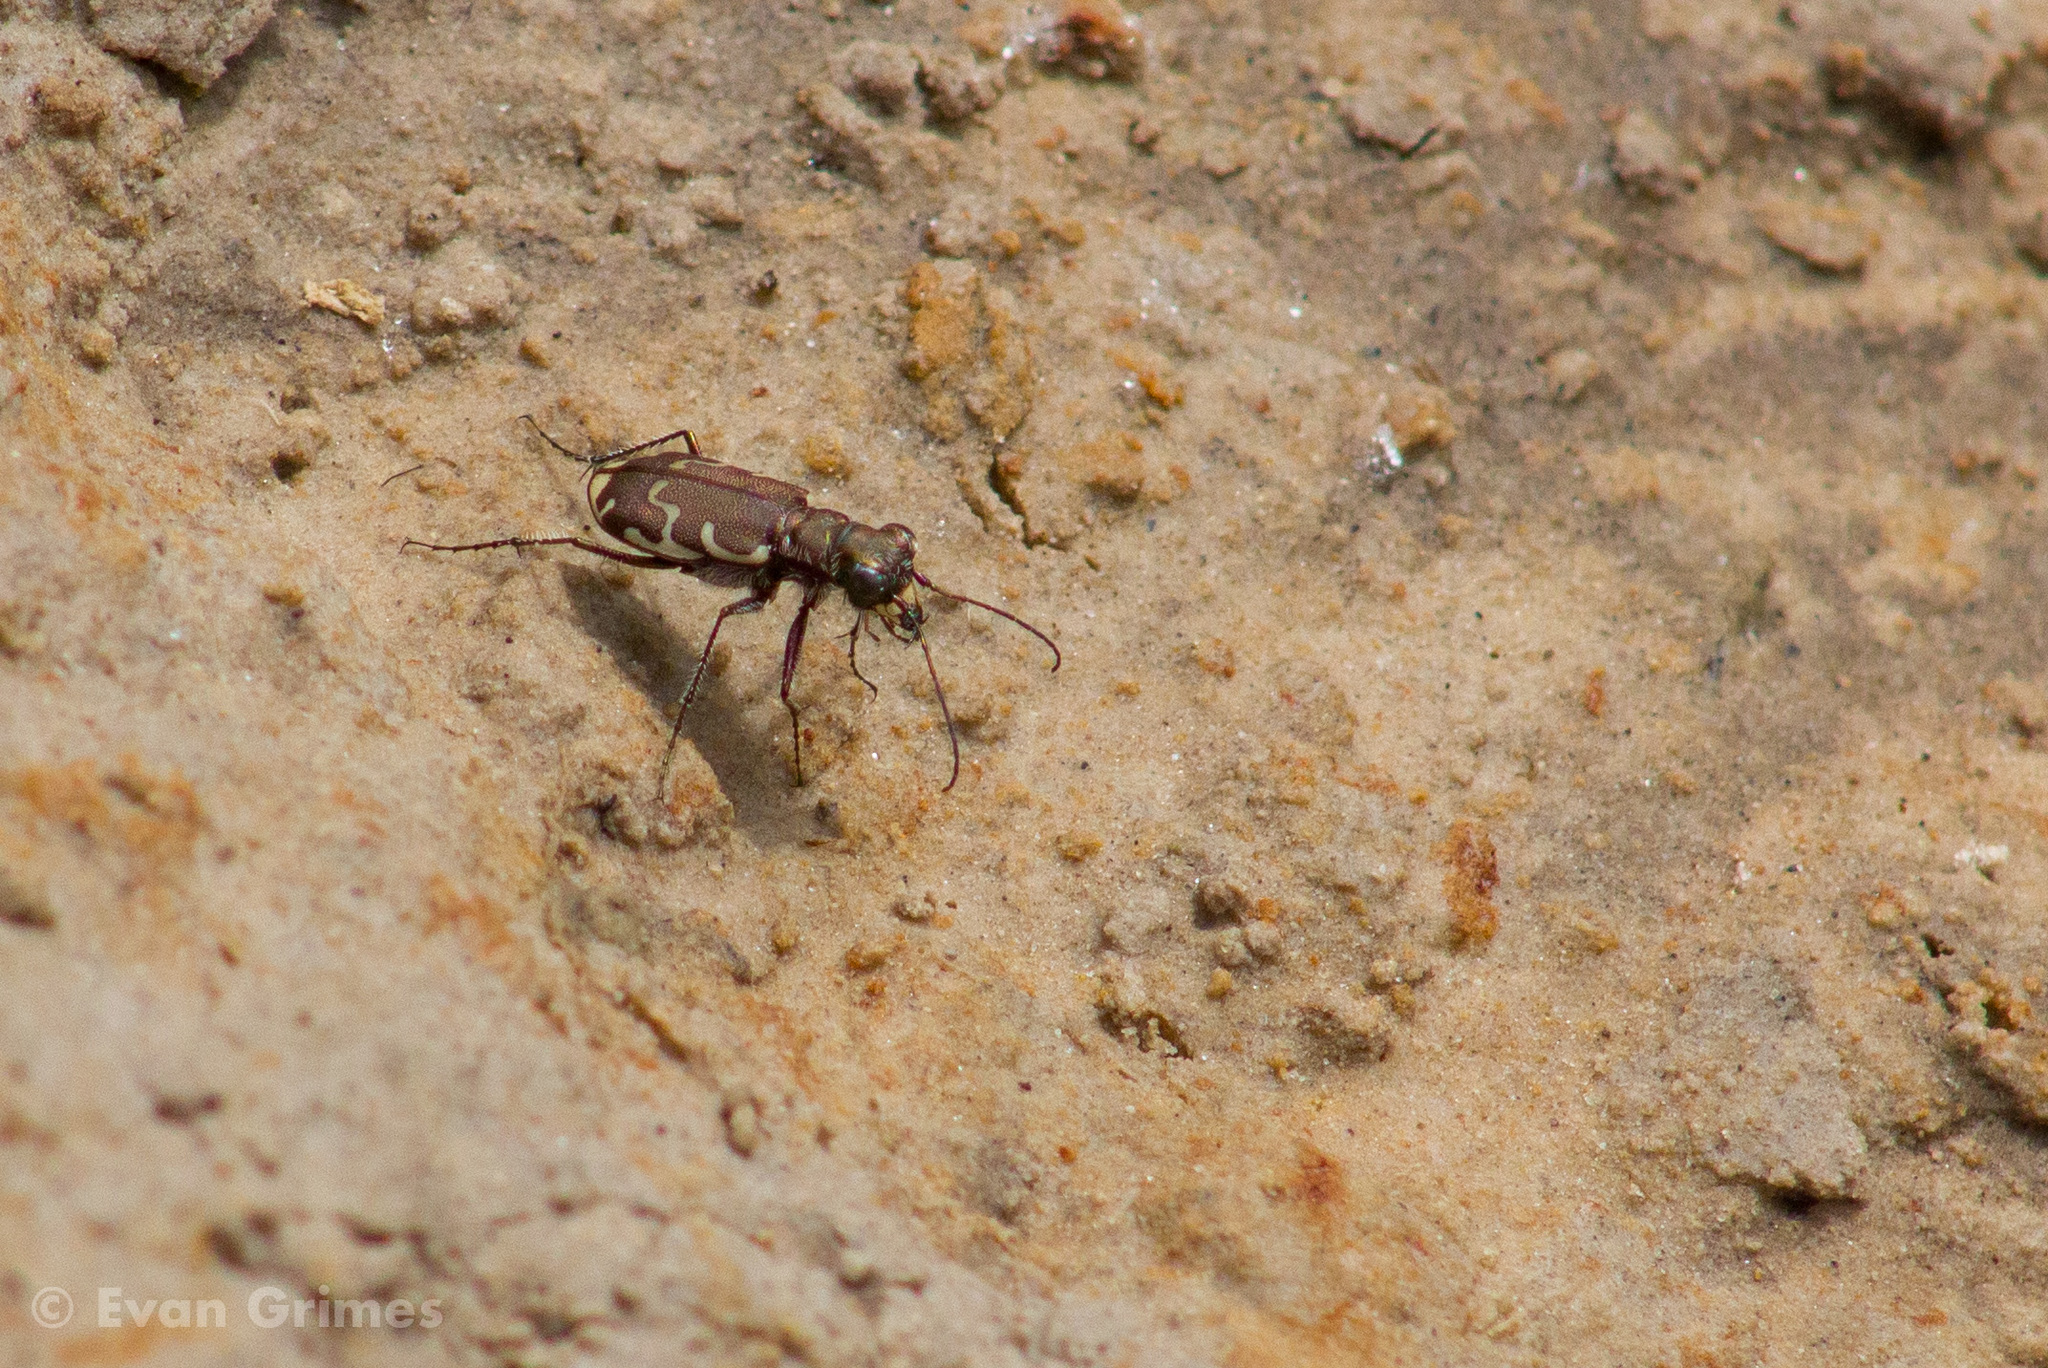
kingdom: Animalia
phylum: Arthropoda
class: Insecta
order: Coleoptera
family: Carabidae
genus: Cicindela
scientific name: Cicindela repanda
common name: Bronzed tiger beetle
